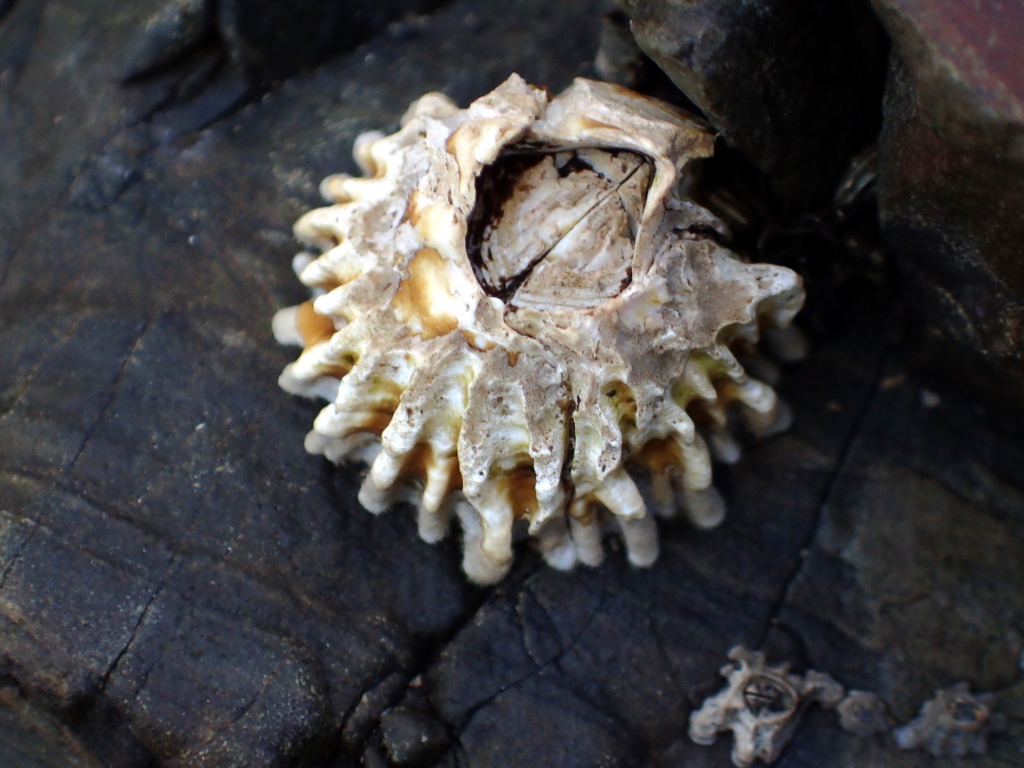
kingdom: Animalia
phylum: Arthropoda
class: Maxillopoda
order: Sessilia
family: Tetraclitidae
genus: Epopella
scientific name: Epopella plicata
